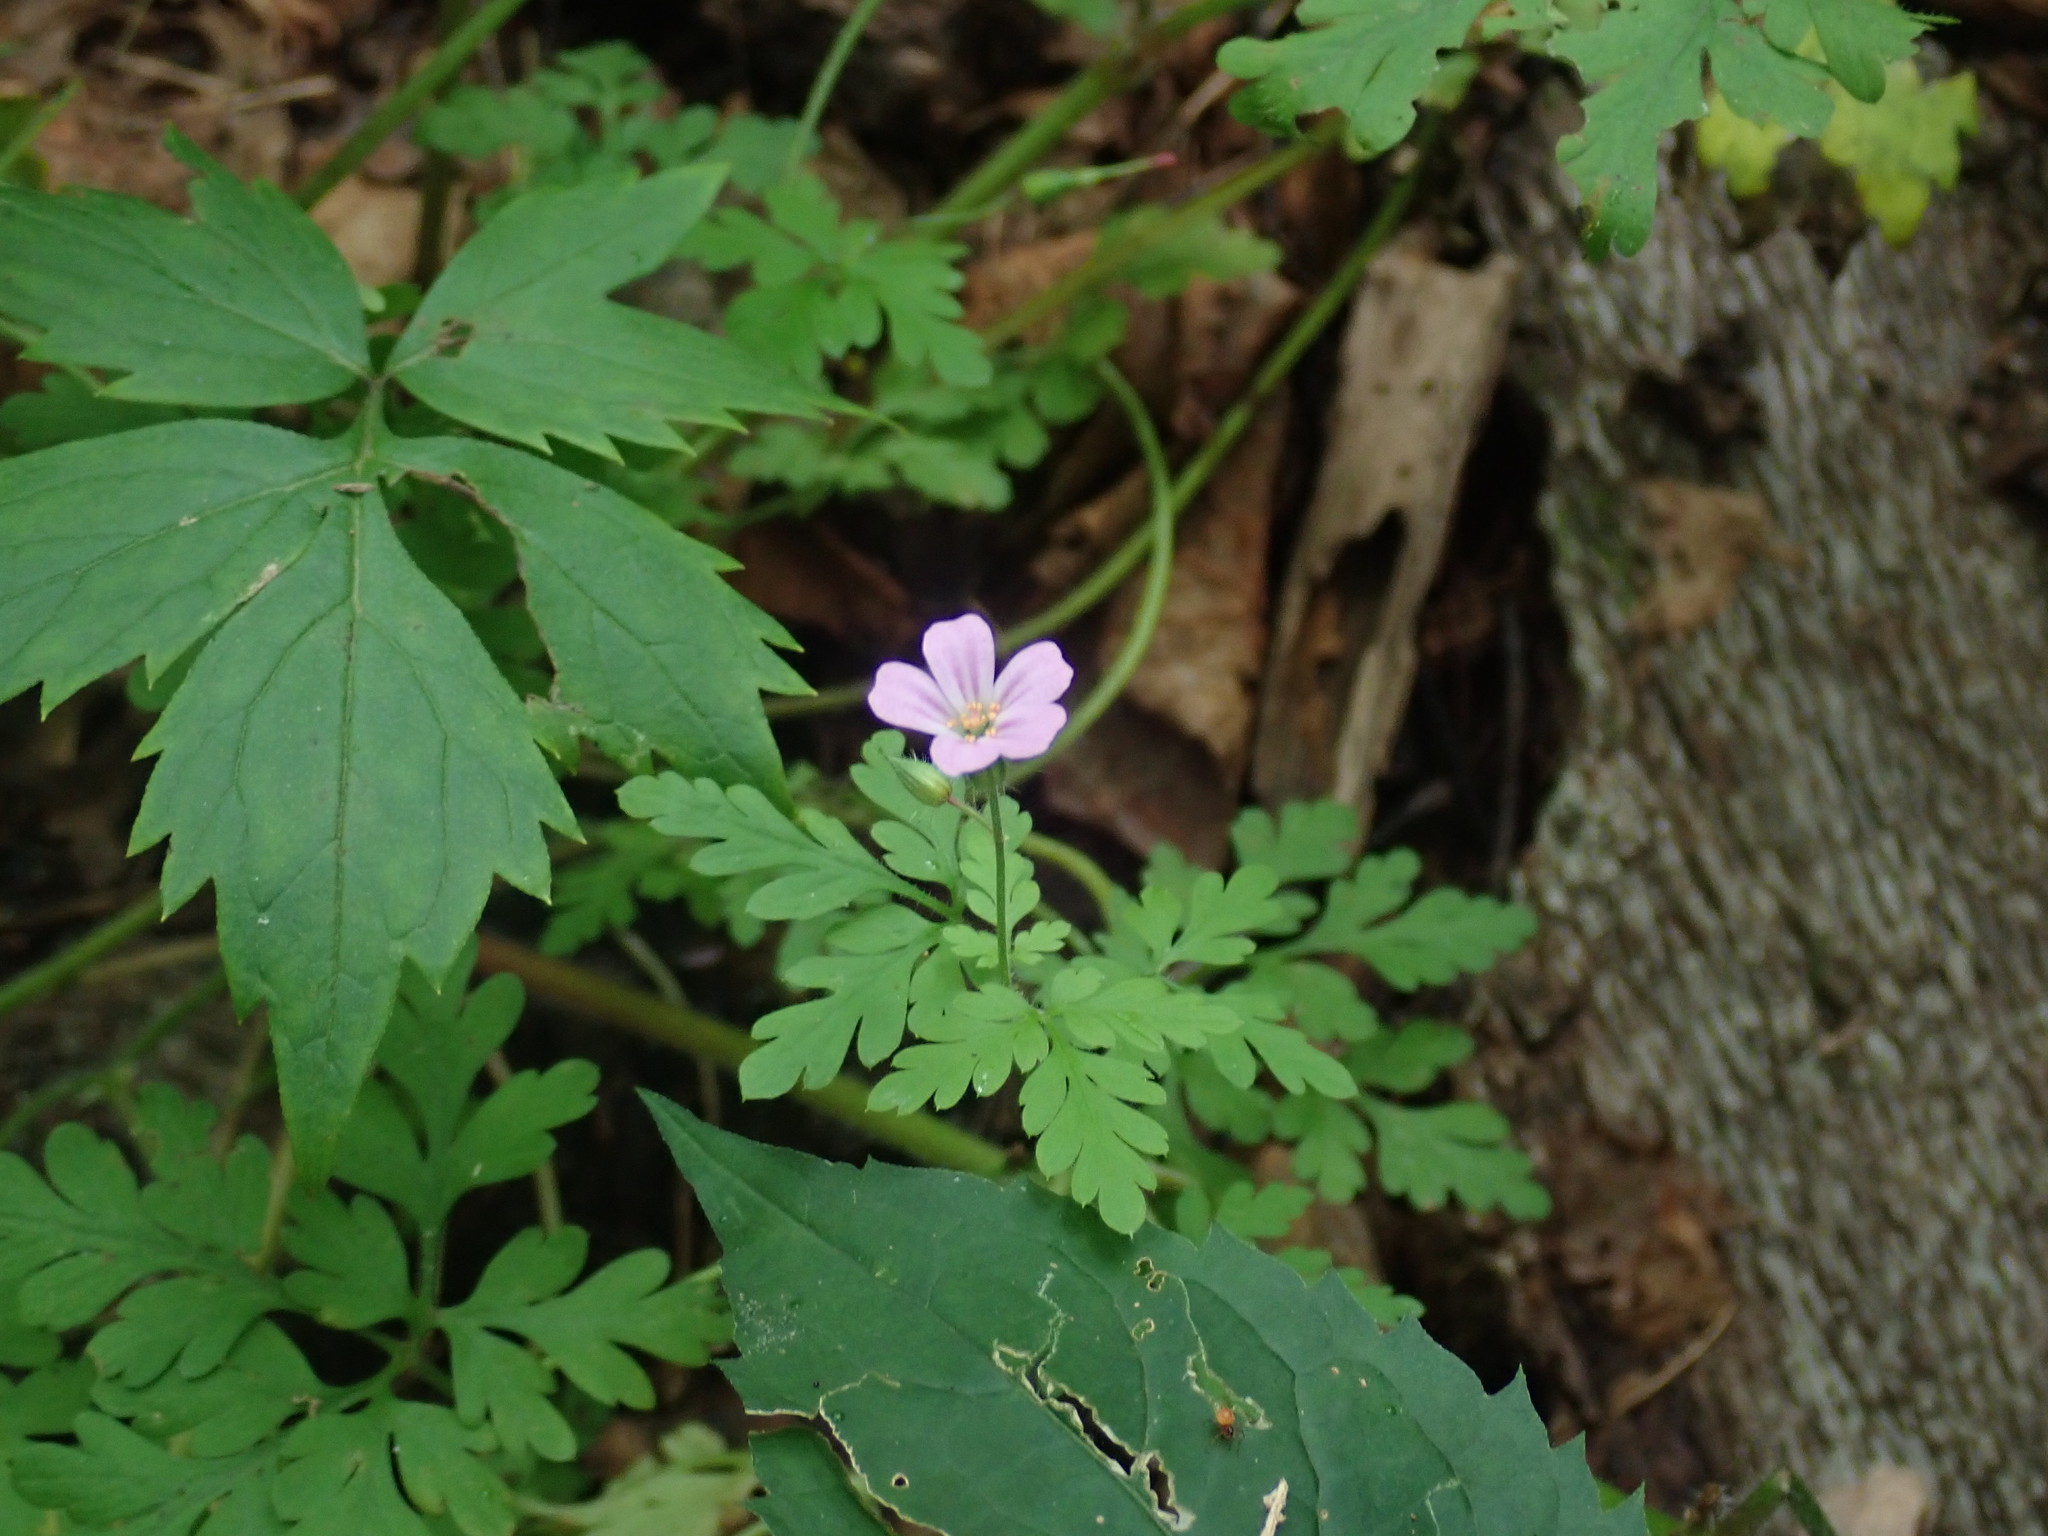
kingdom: Plantae
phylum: Tracheophyta
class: Magnoliopsida
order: Geraniales
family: Geraniaceae
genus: Geranium
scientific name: Geranium robertianum
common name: Herb-robert
